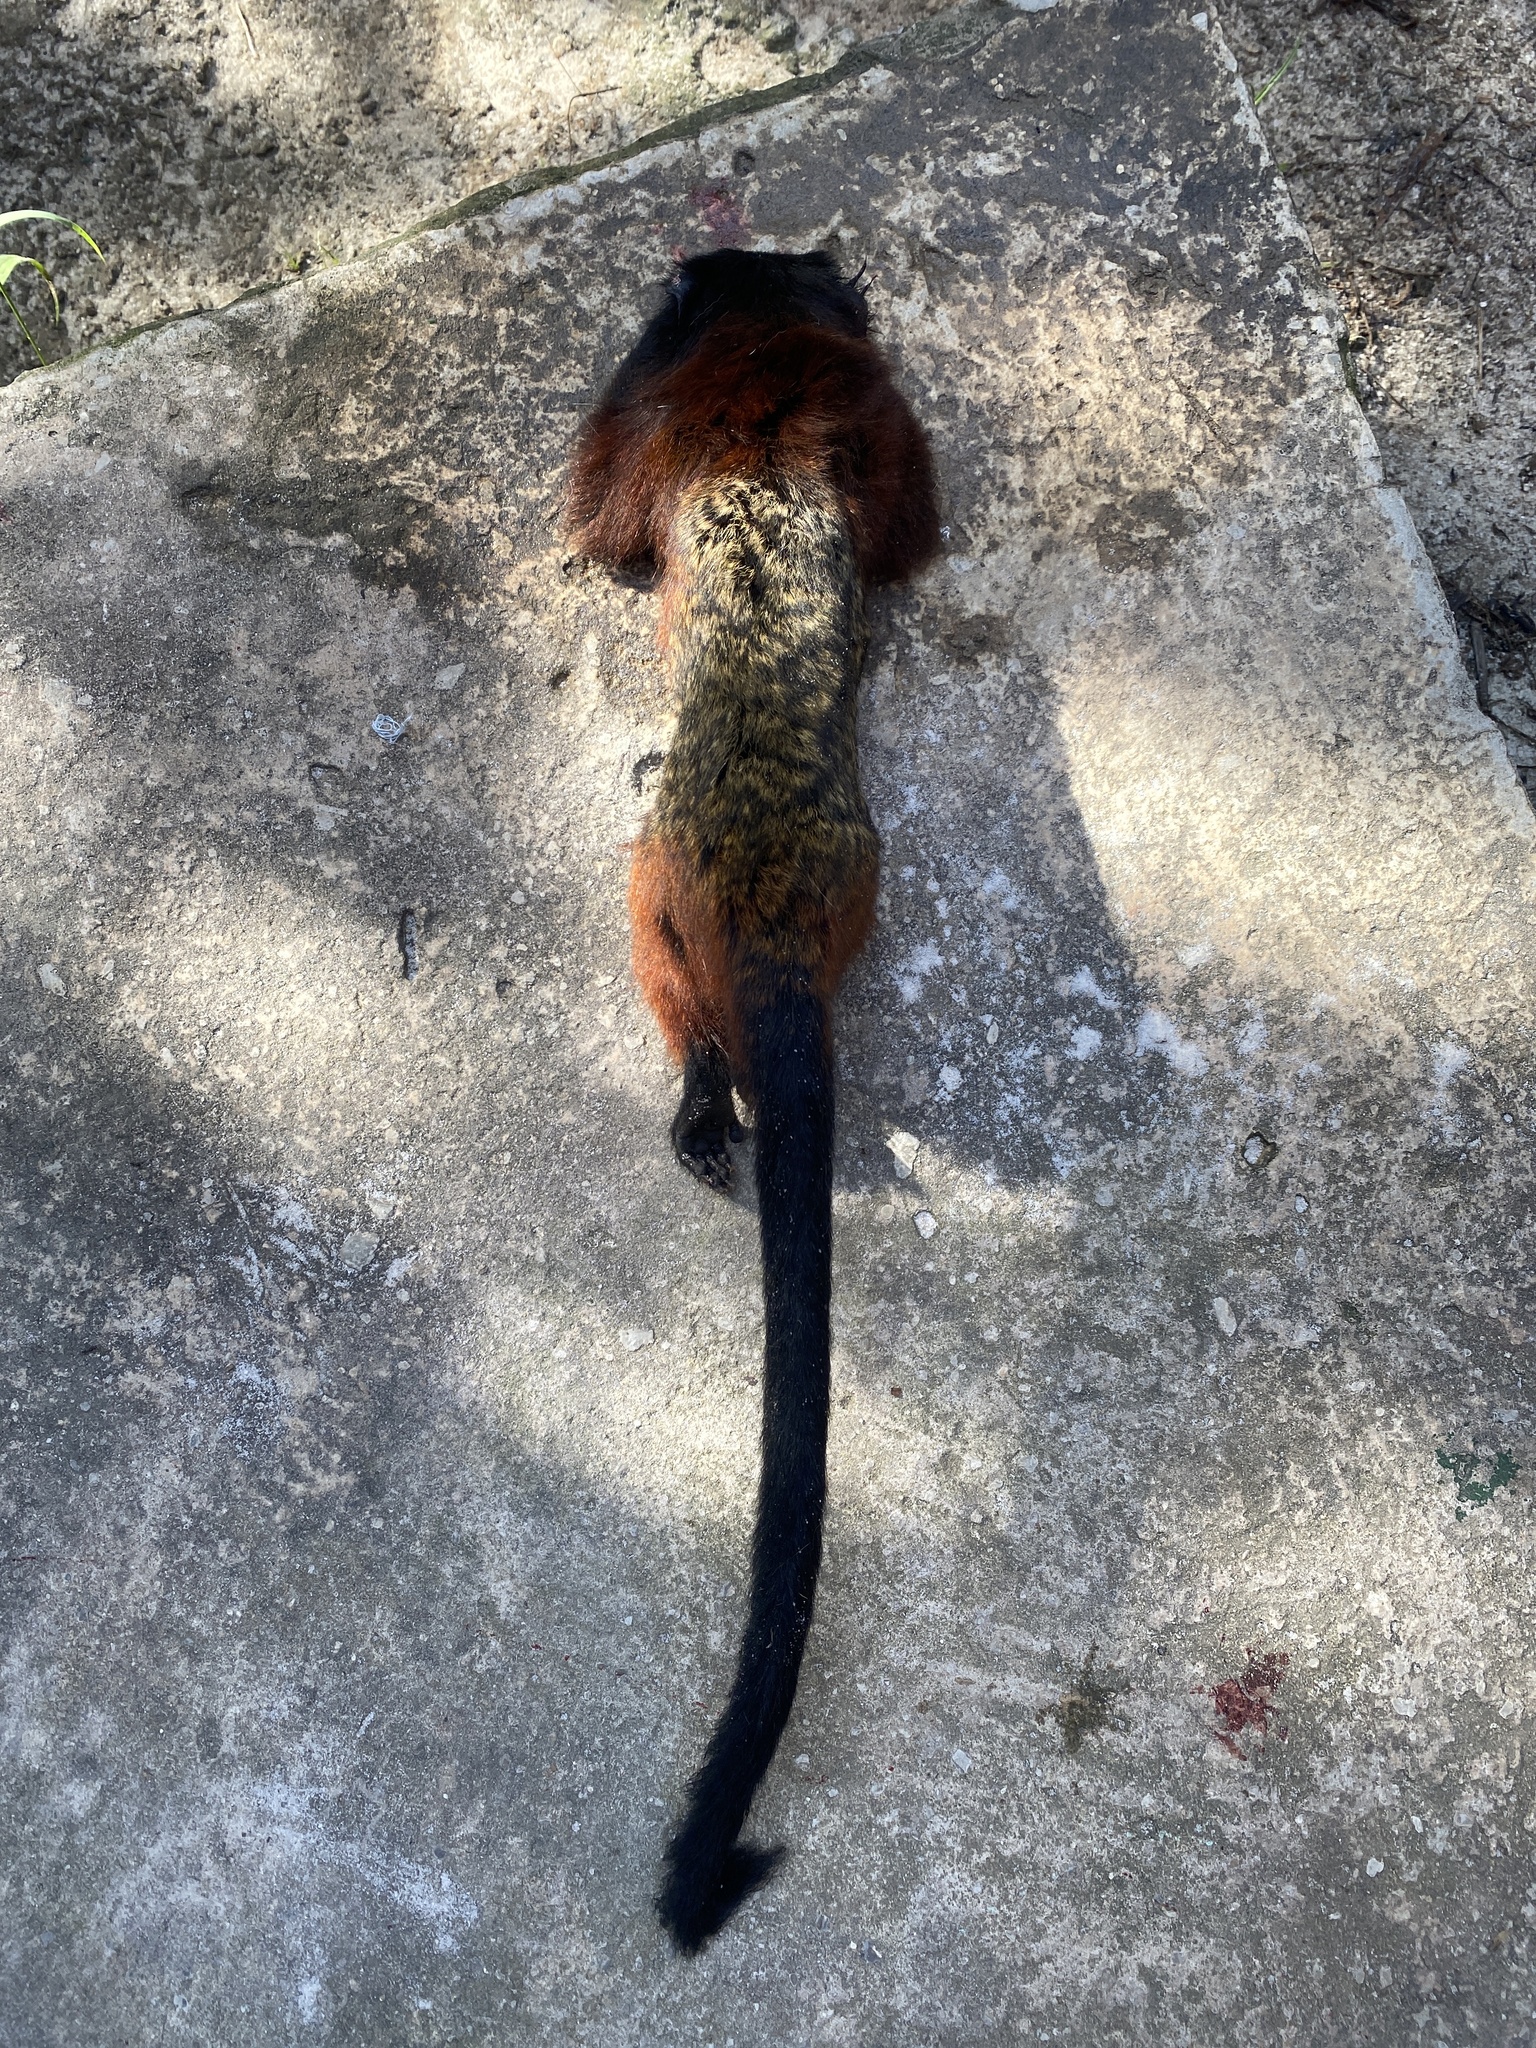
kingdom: Animalia
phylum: Chordata
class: Mammalia
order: Primates
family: Callitrichidae
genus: Leontocebus
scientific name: Leontocebus lagonotus
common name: Red-mantled saddle-back tamarin
